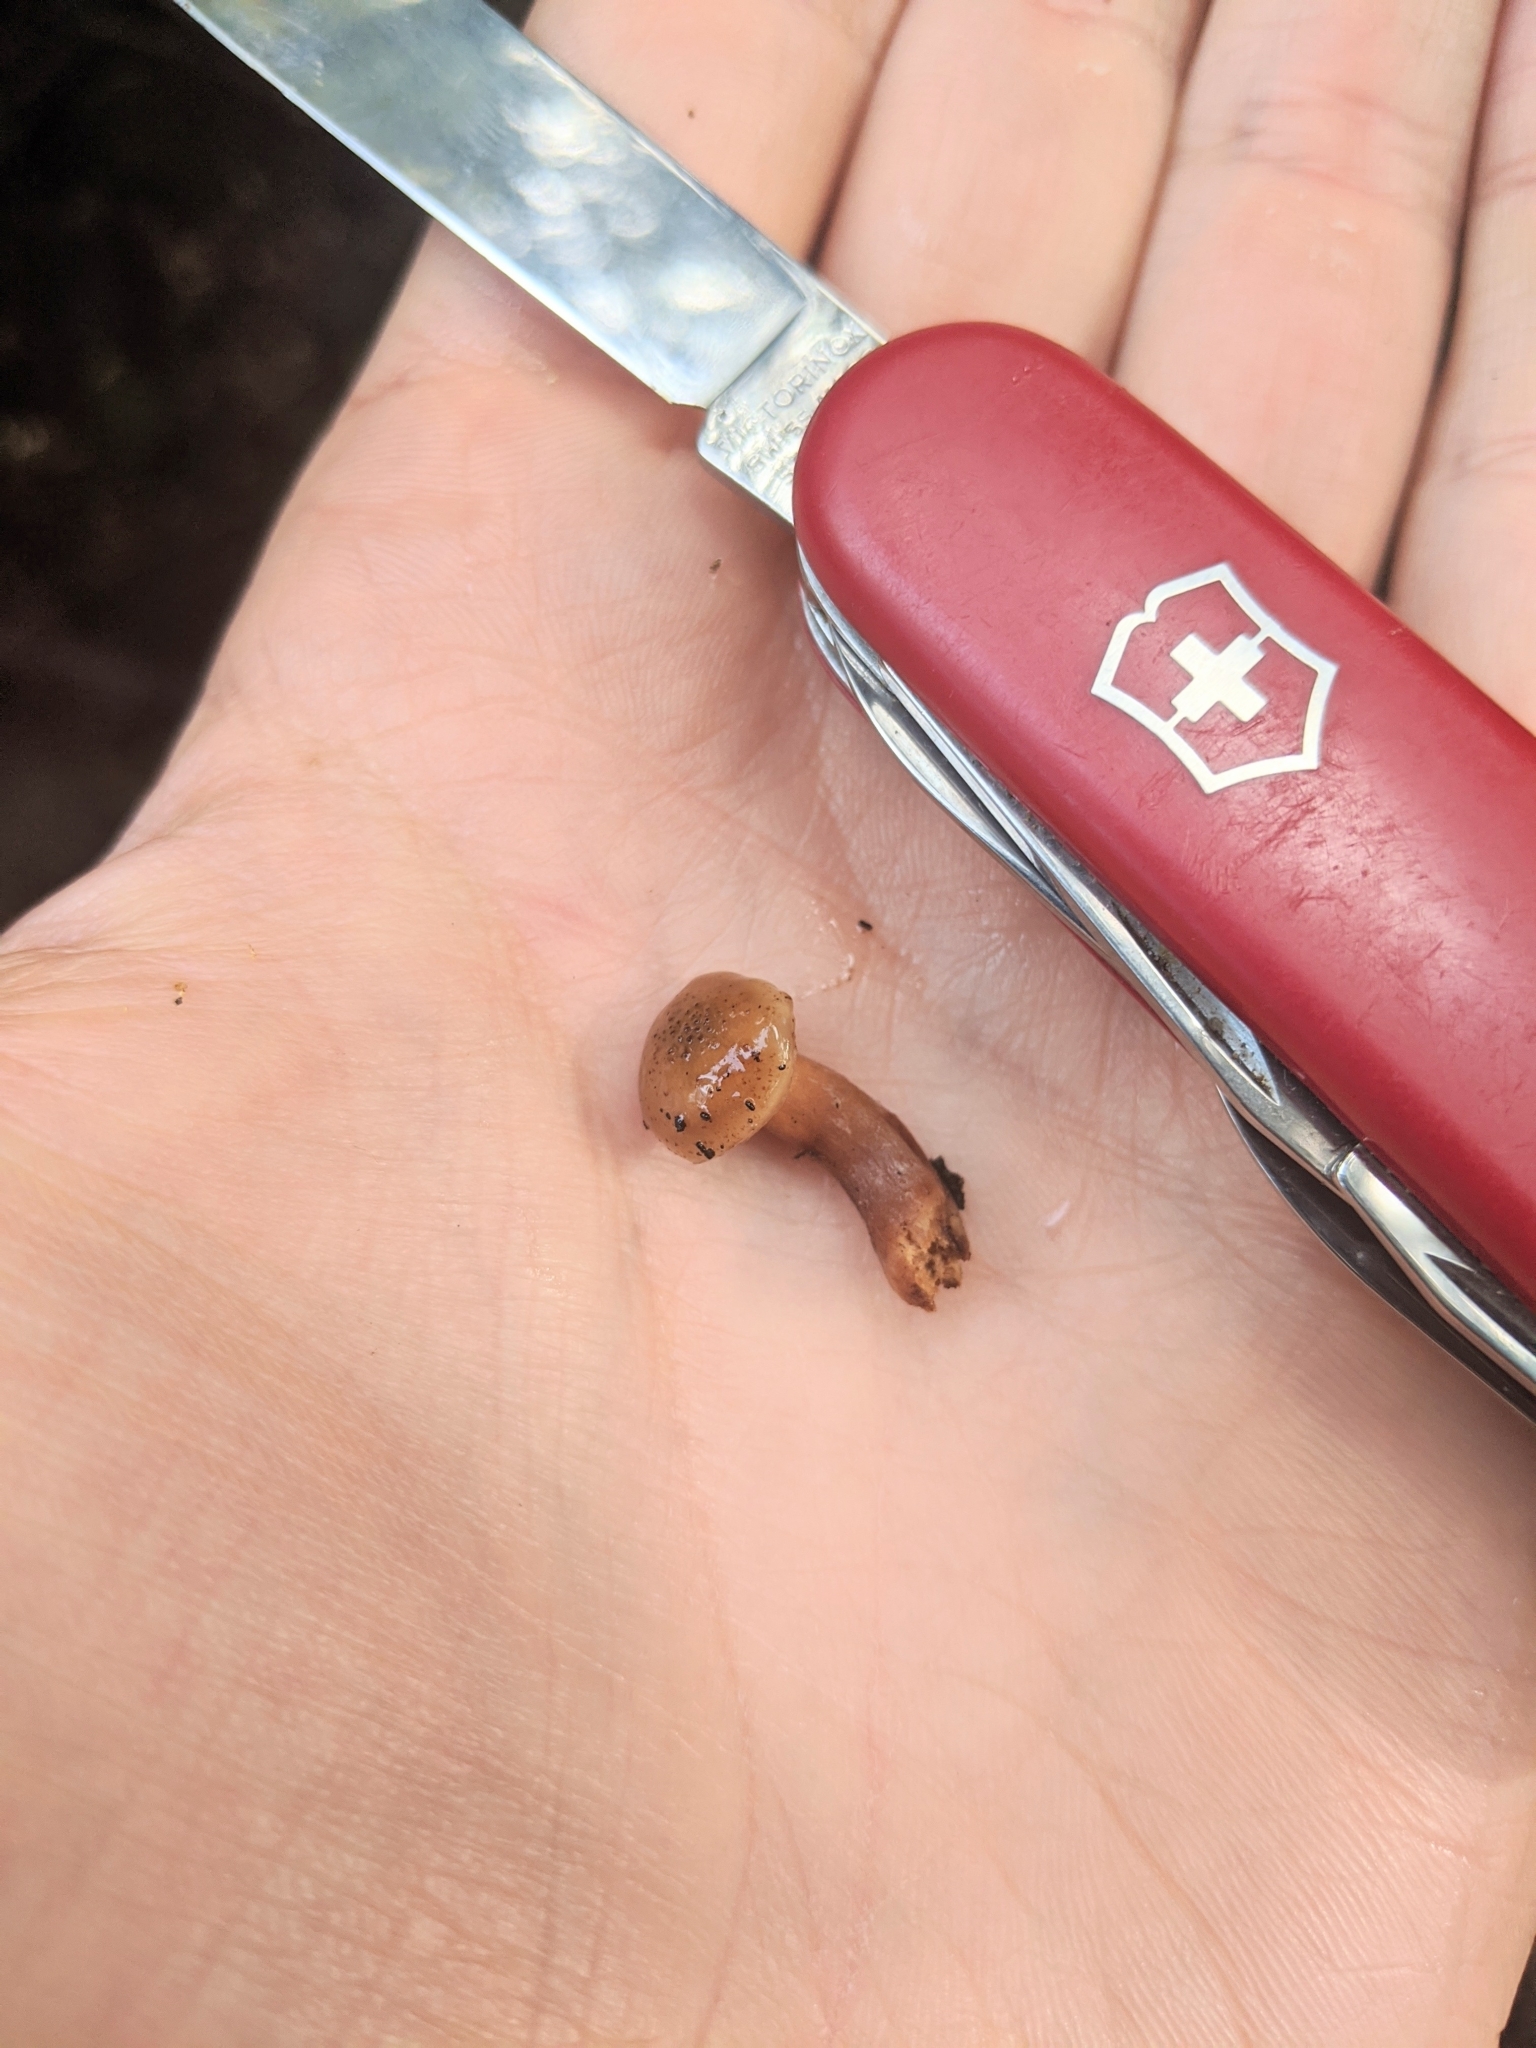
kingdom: Fungi
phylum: Basidiomycota
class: Agaricomycetes
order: Agaricales
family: Physalacriaceae
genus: Armillaria
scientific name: Armillaria limonea
